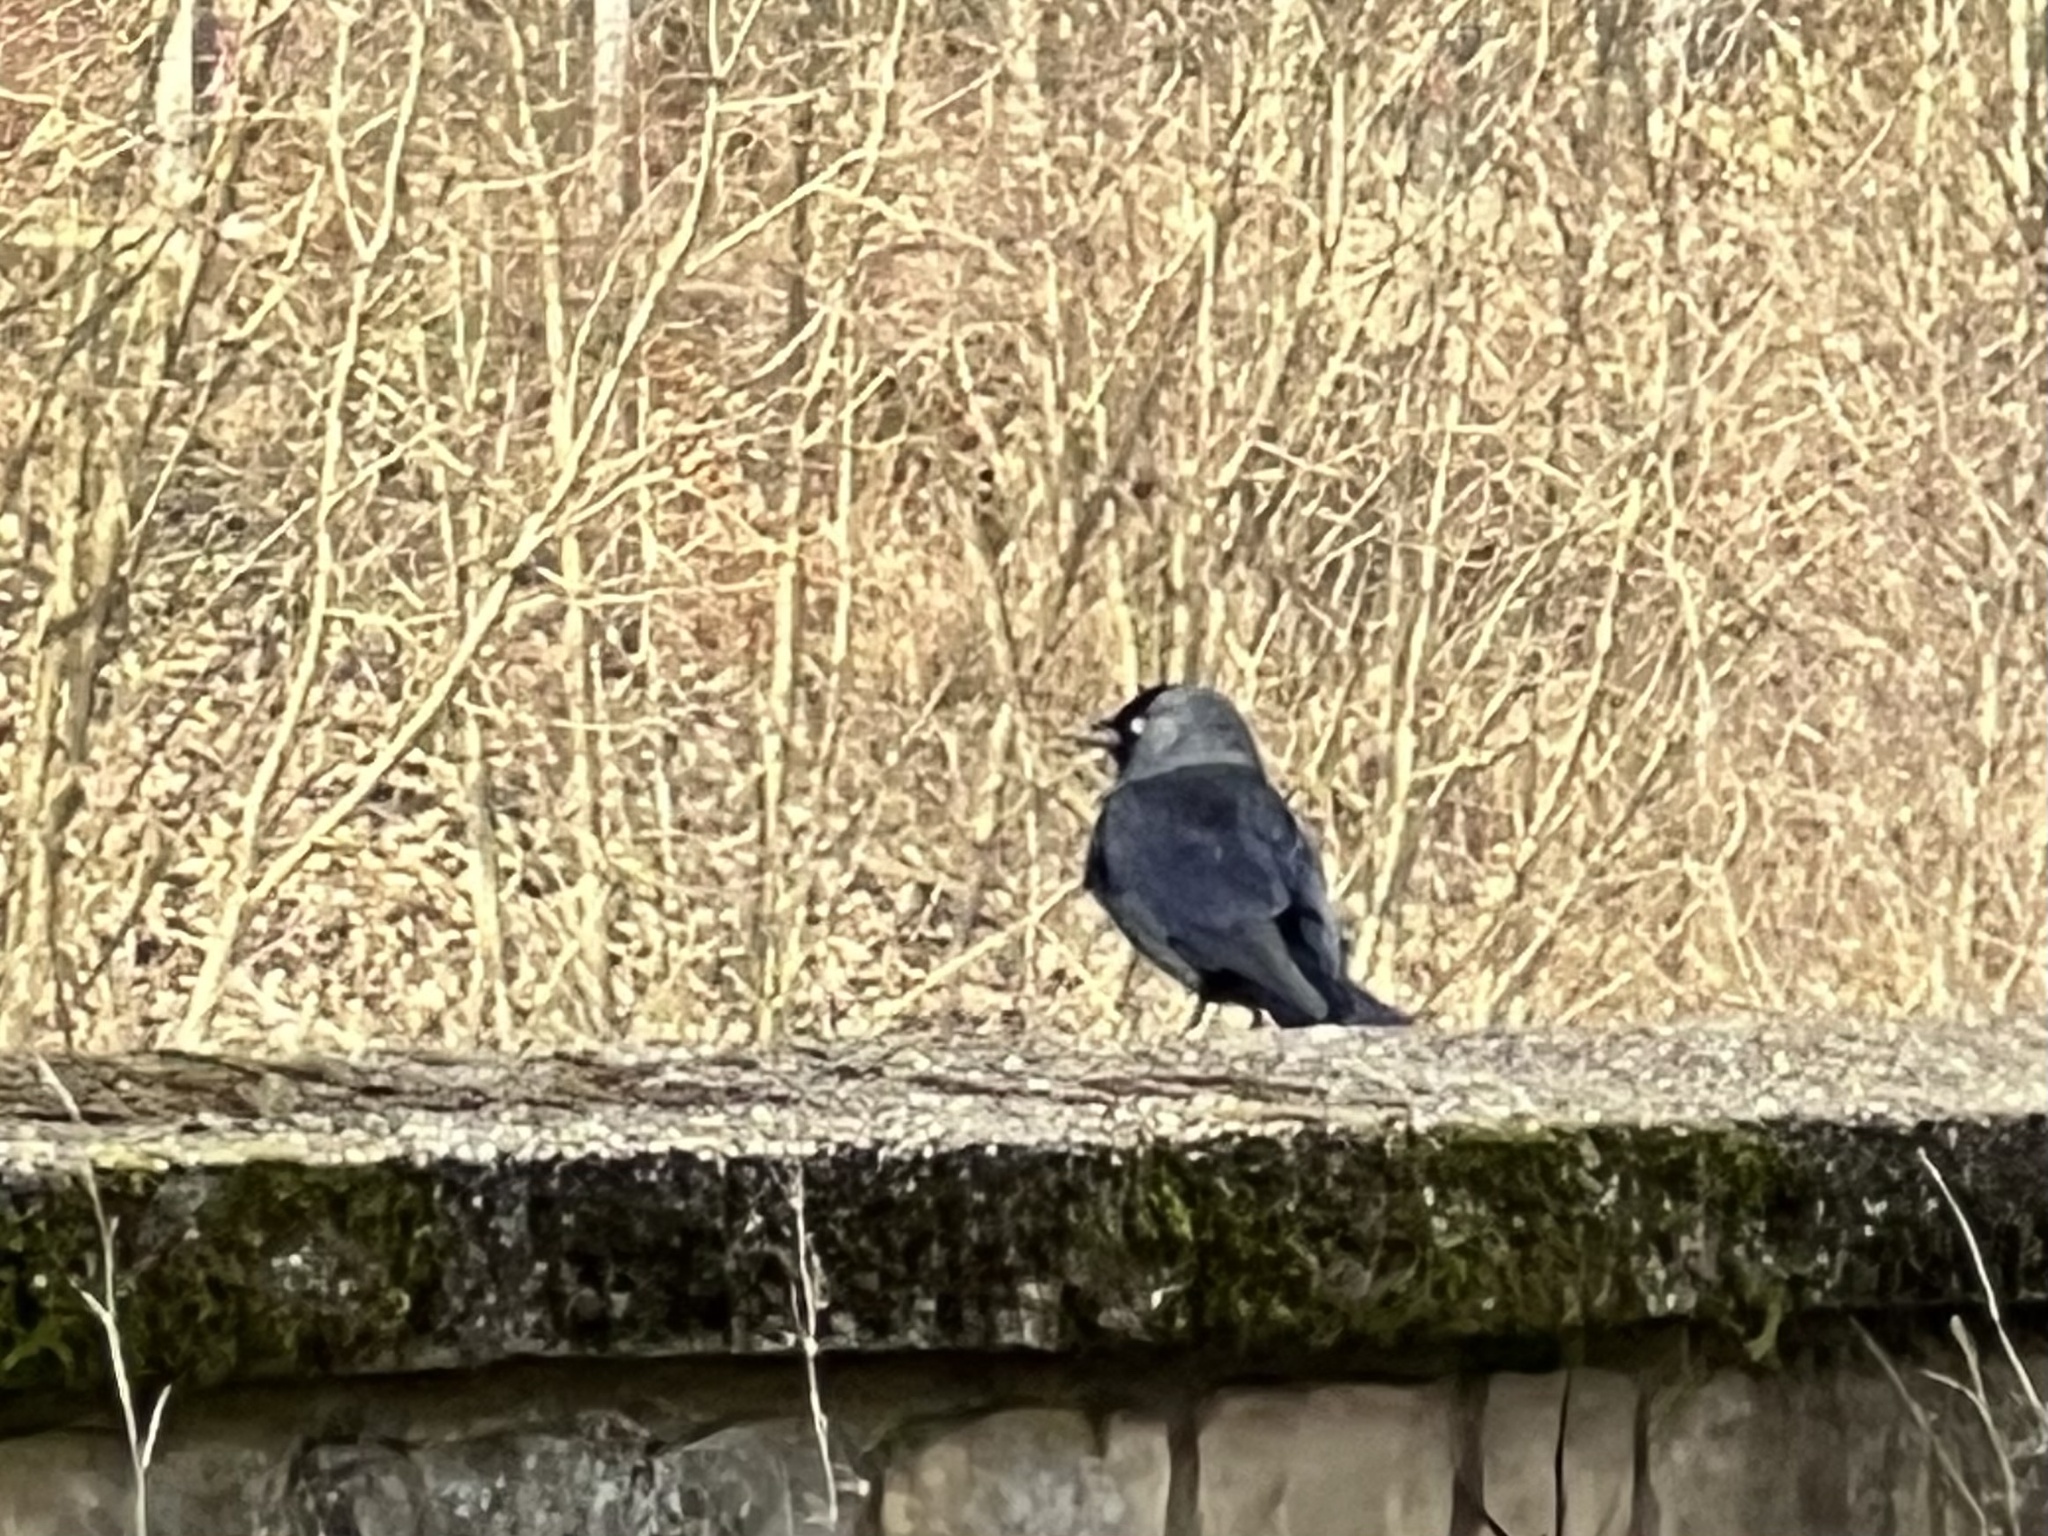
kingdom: Animalia
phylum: Chordata
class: Aves
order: Passeriformes
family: Corvidae
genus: Coloeus
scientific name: Coloeus monedula
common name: Western jackdaw
